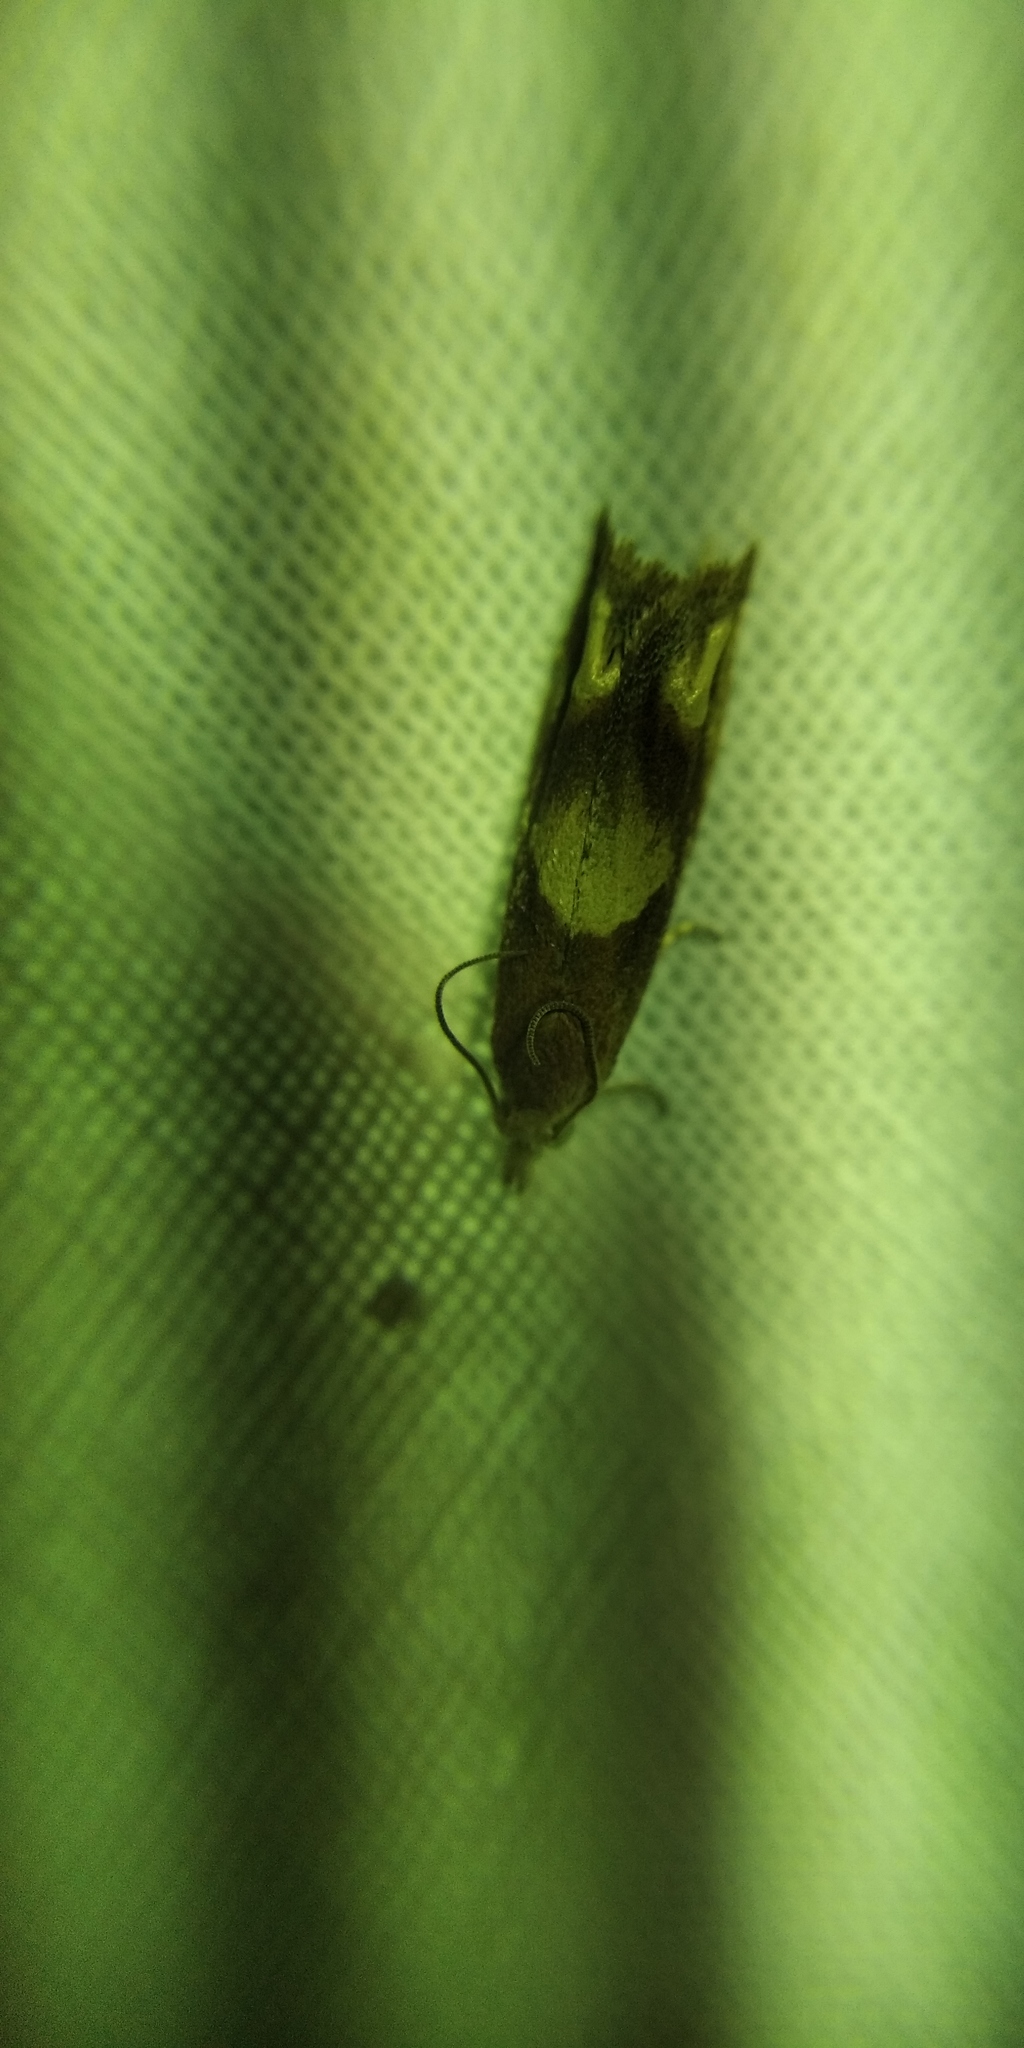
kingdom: Animalia
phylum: Arthropoda
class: Insecta
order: Lepidoptera
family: Tortricidae
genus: Eucosma
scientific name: Eucosma conterminana
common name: Pale lettuce bell
